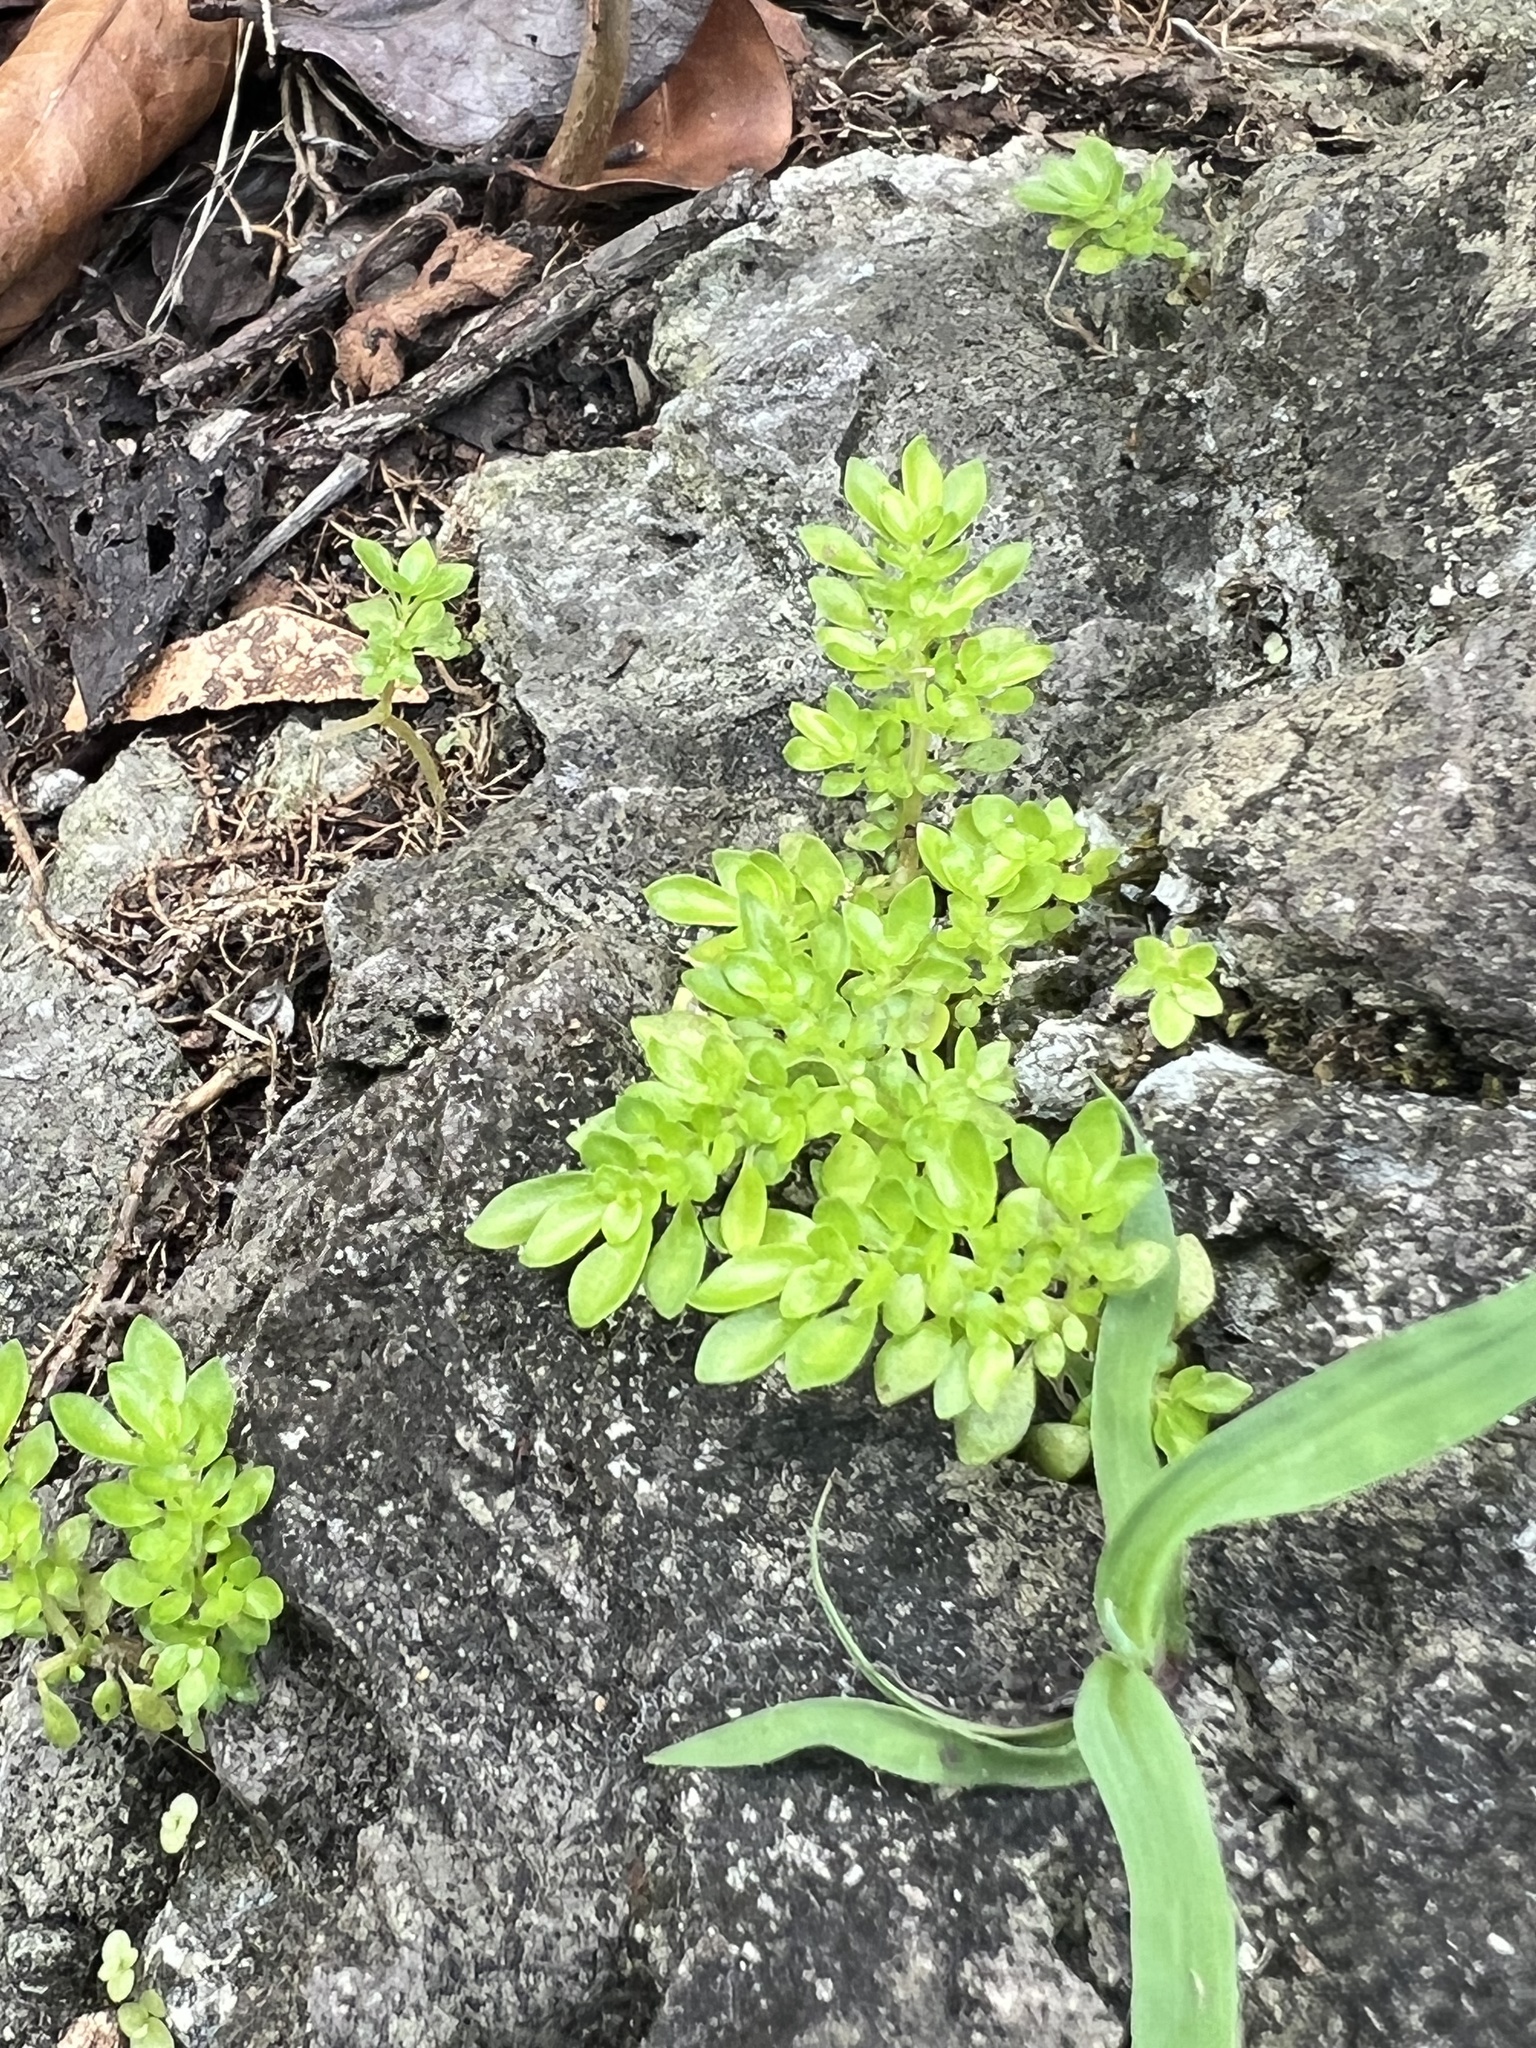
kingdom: Plantae
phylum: Tracheophyta
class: Magnoliopsida
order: Rosales
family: Urticaceae
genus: Pilea
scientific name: Pilea microphylla
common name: Artillery-plant
